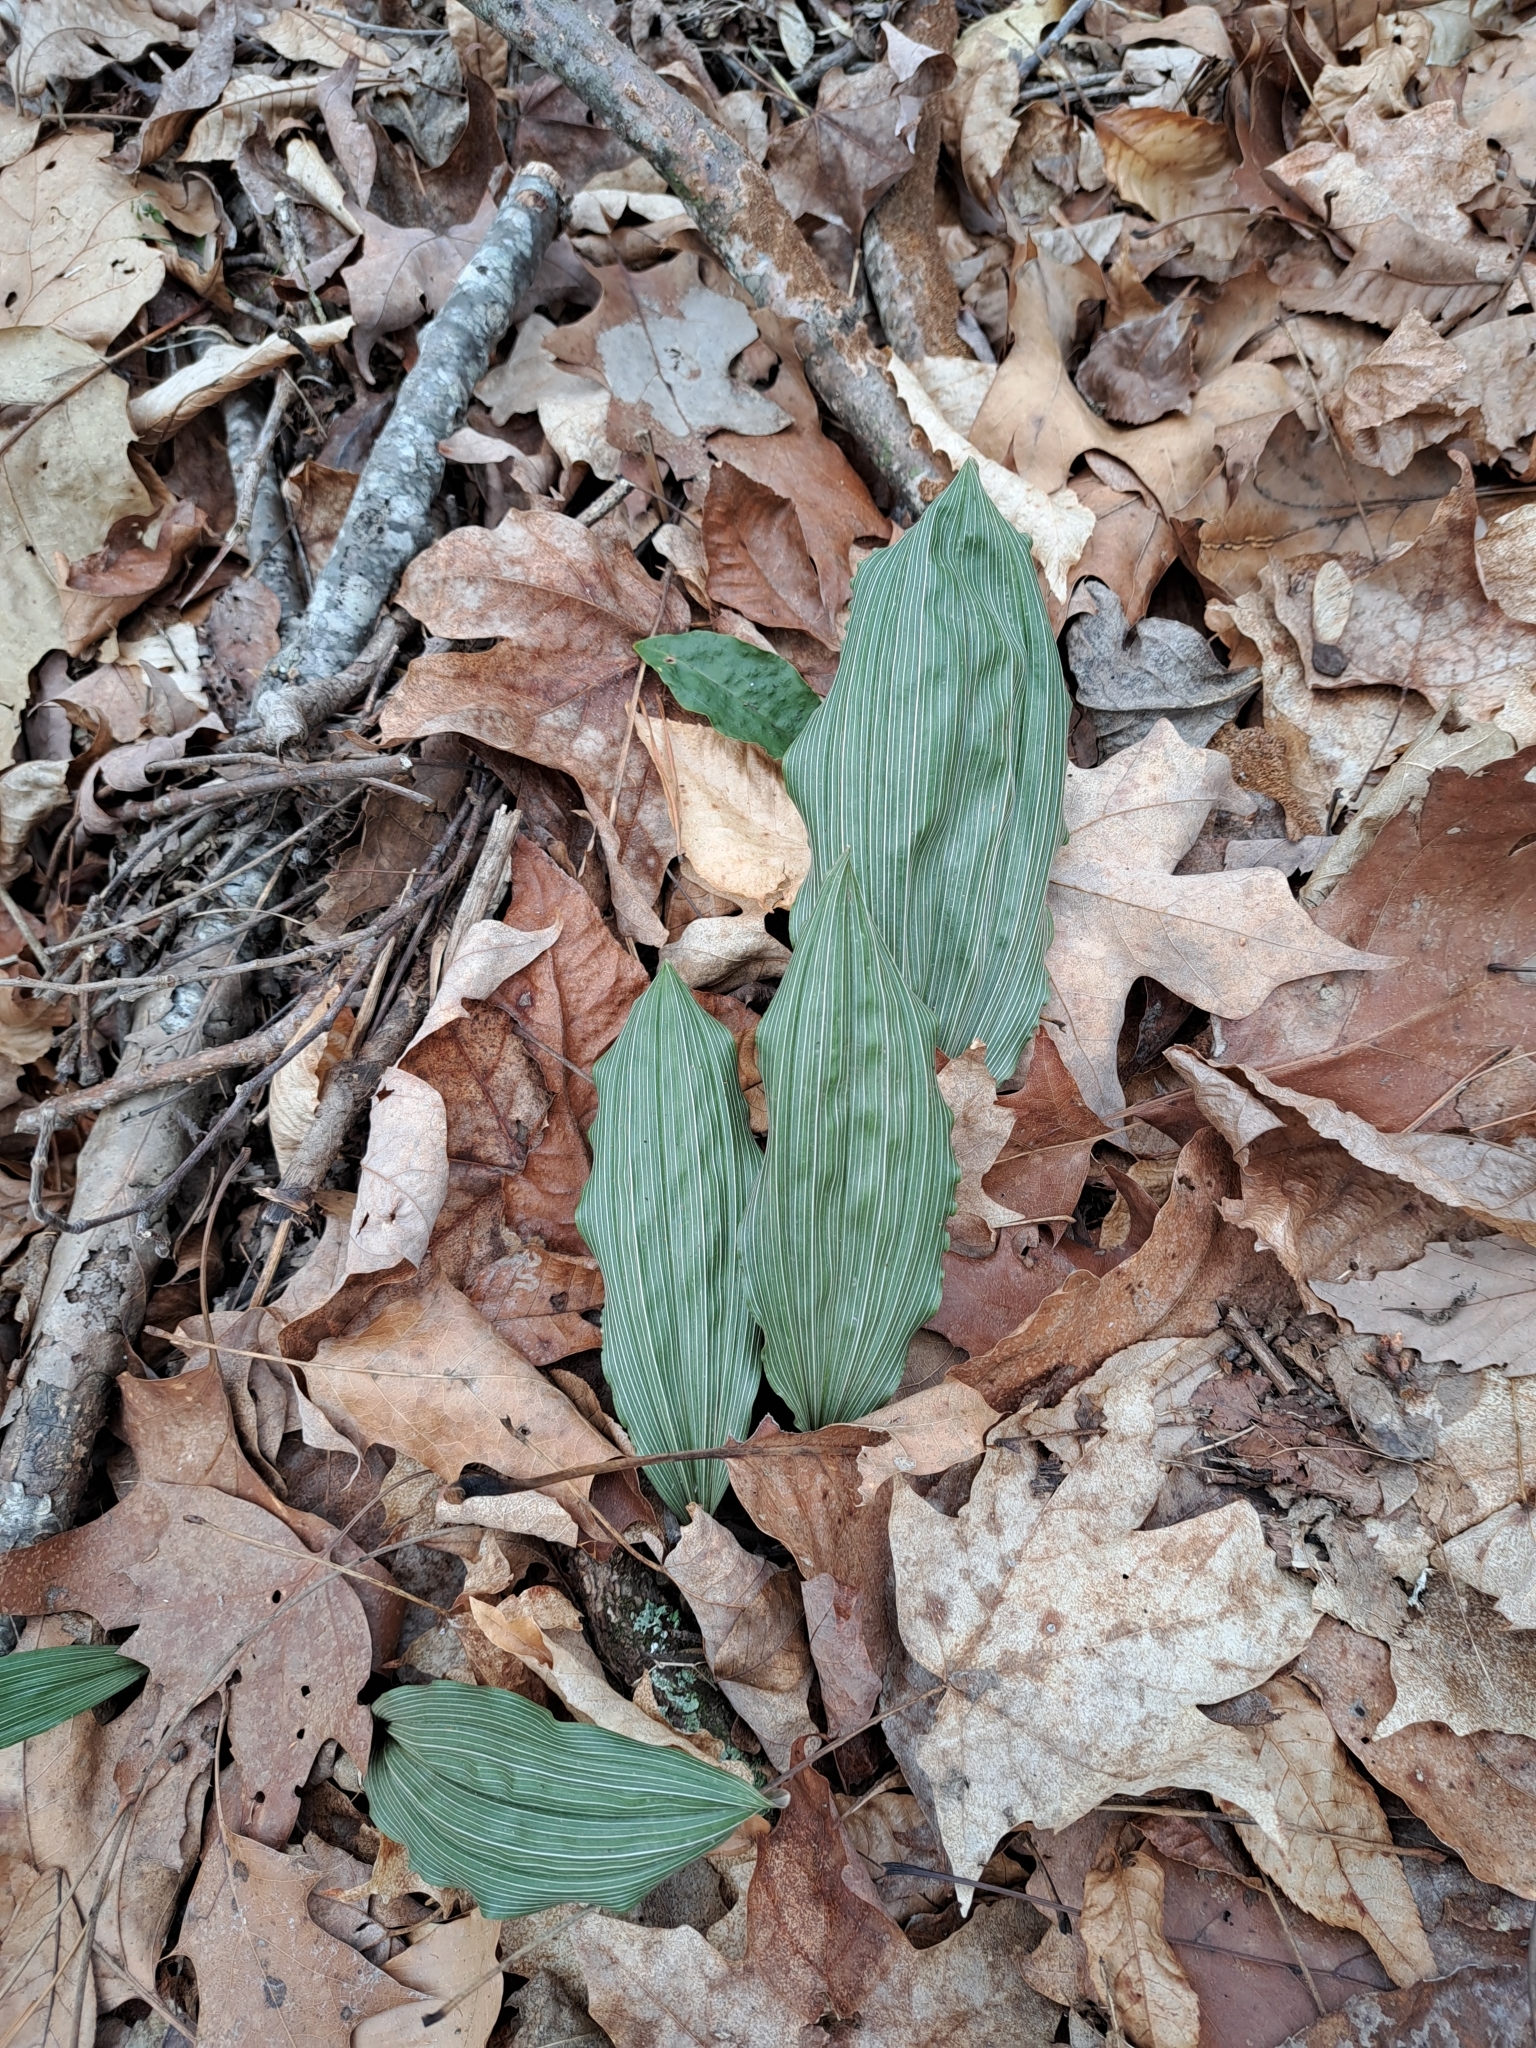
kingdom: Plantae
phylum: Tracheophyta
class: Liliopsida
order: Asparagales
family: Orchidaceae
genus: Aplectrum
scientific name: Aplectrum hyemale
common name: Adam-and-eve
